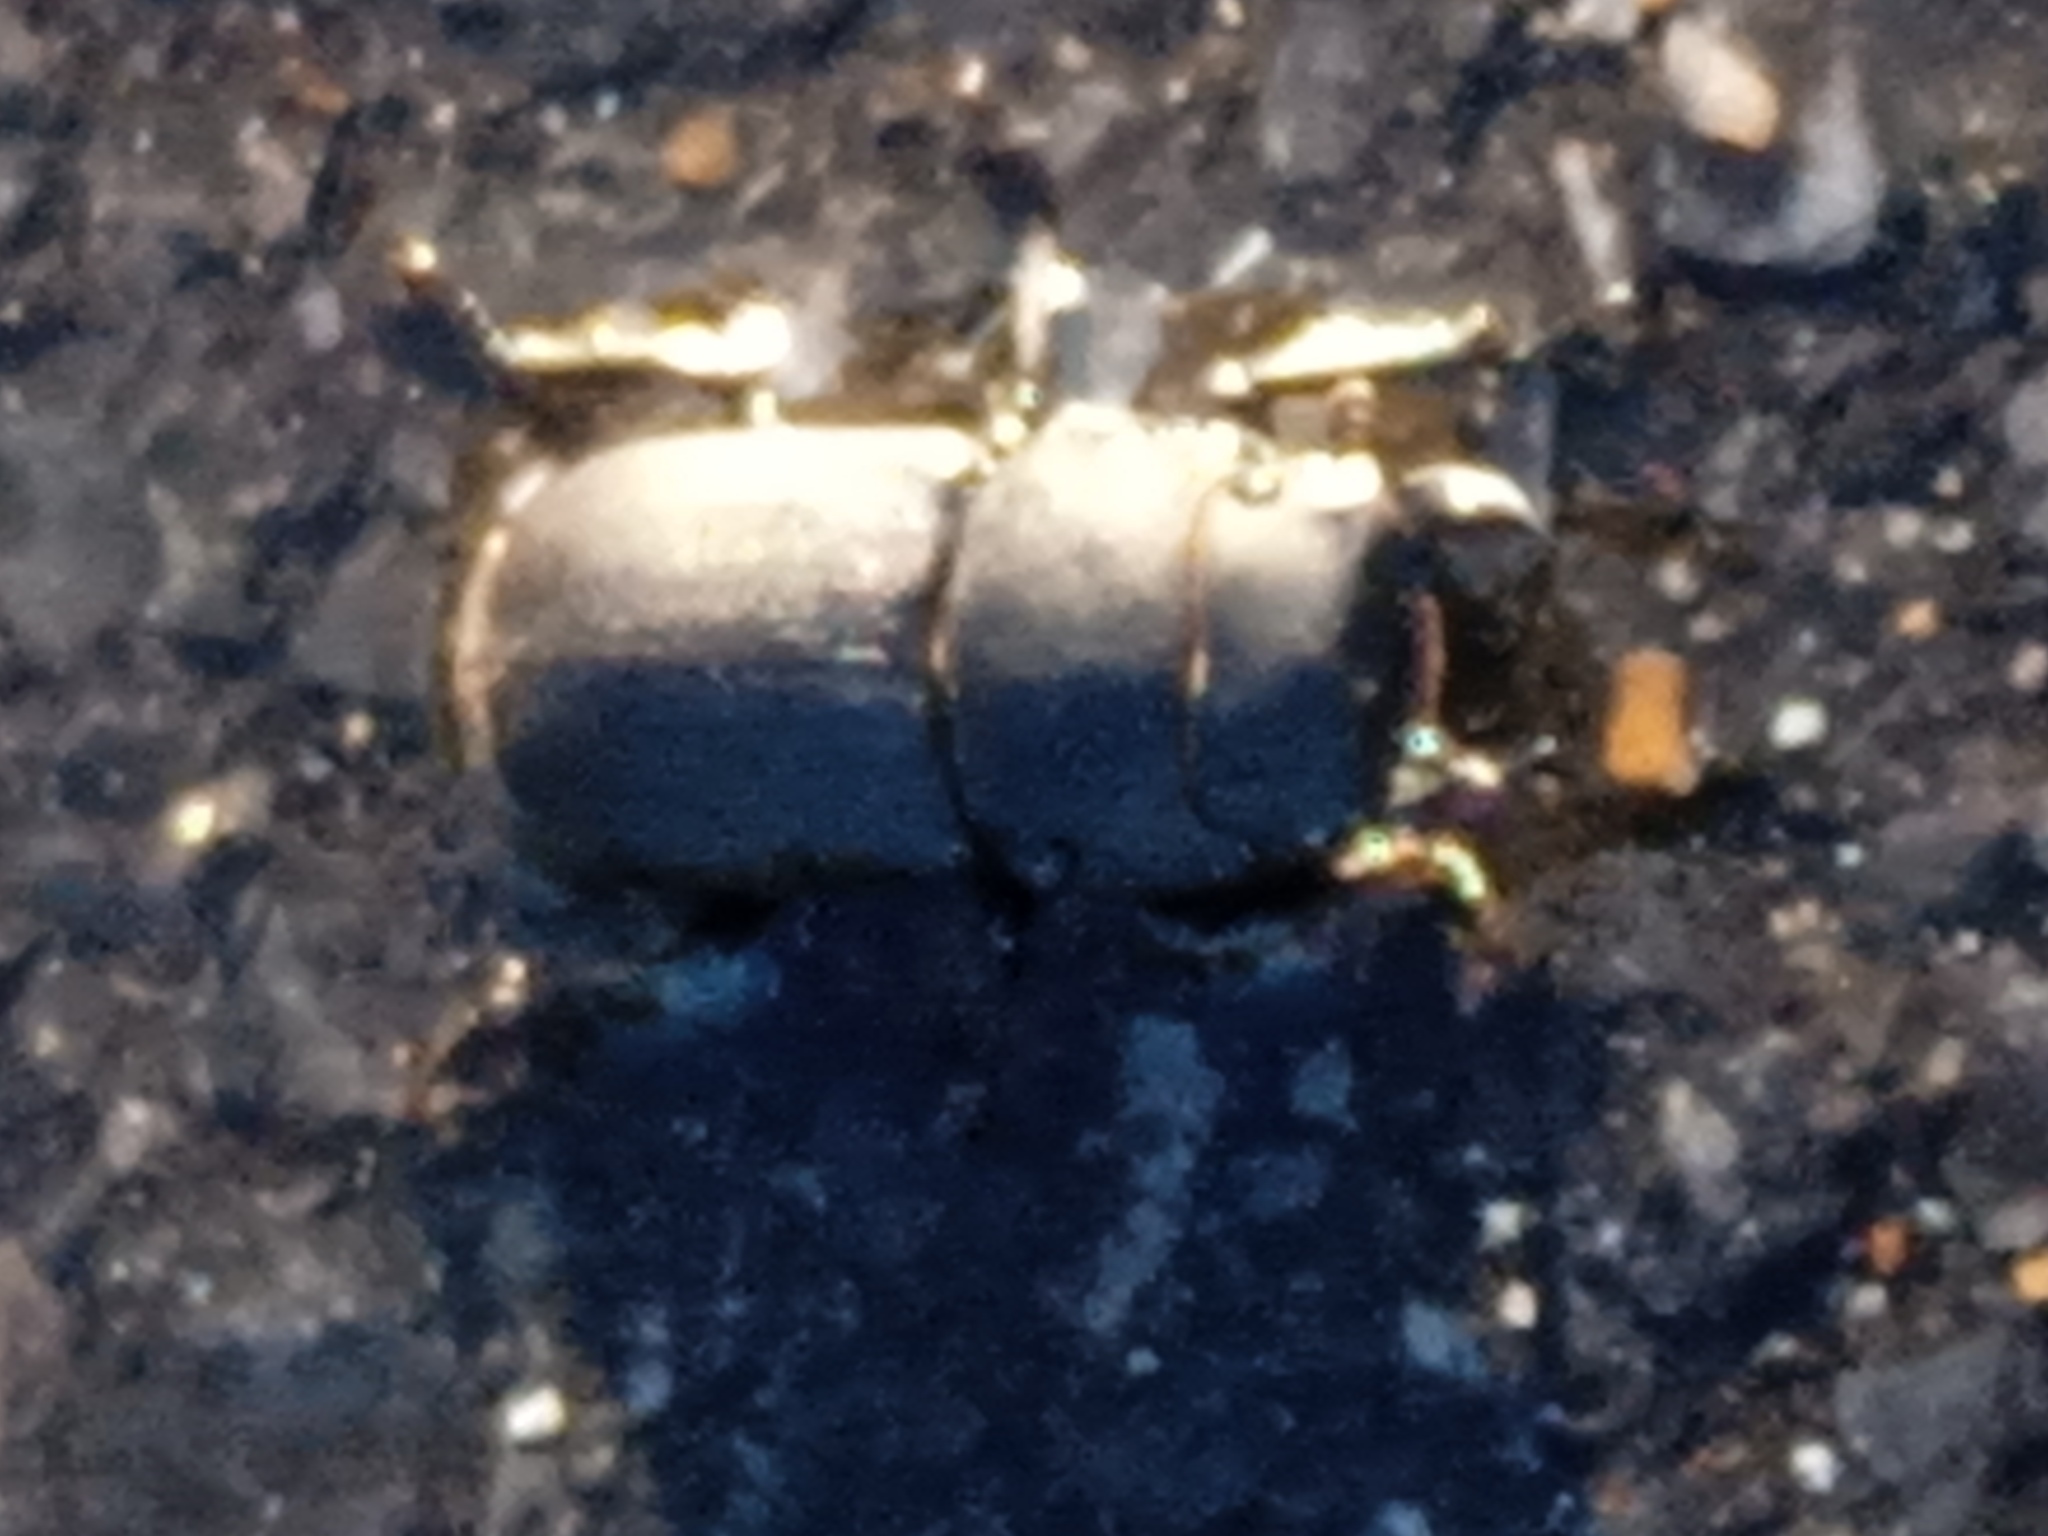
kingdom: Animalia
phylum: Arthropoda
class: Insecta
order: Coleoptera
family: Lucanidae
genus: Dorcus
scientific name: Dorcus parallelipipedus
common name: Lesser stag beetle
